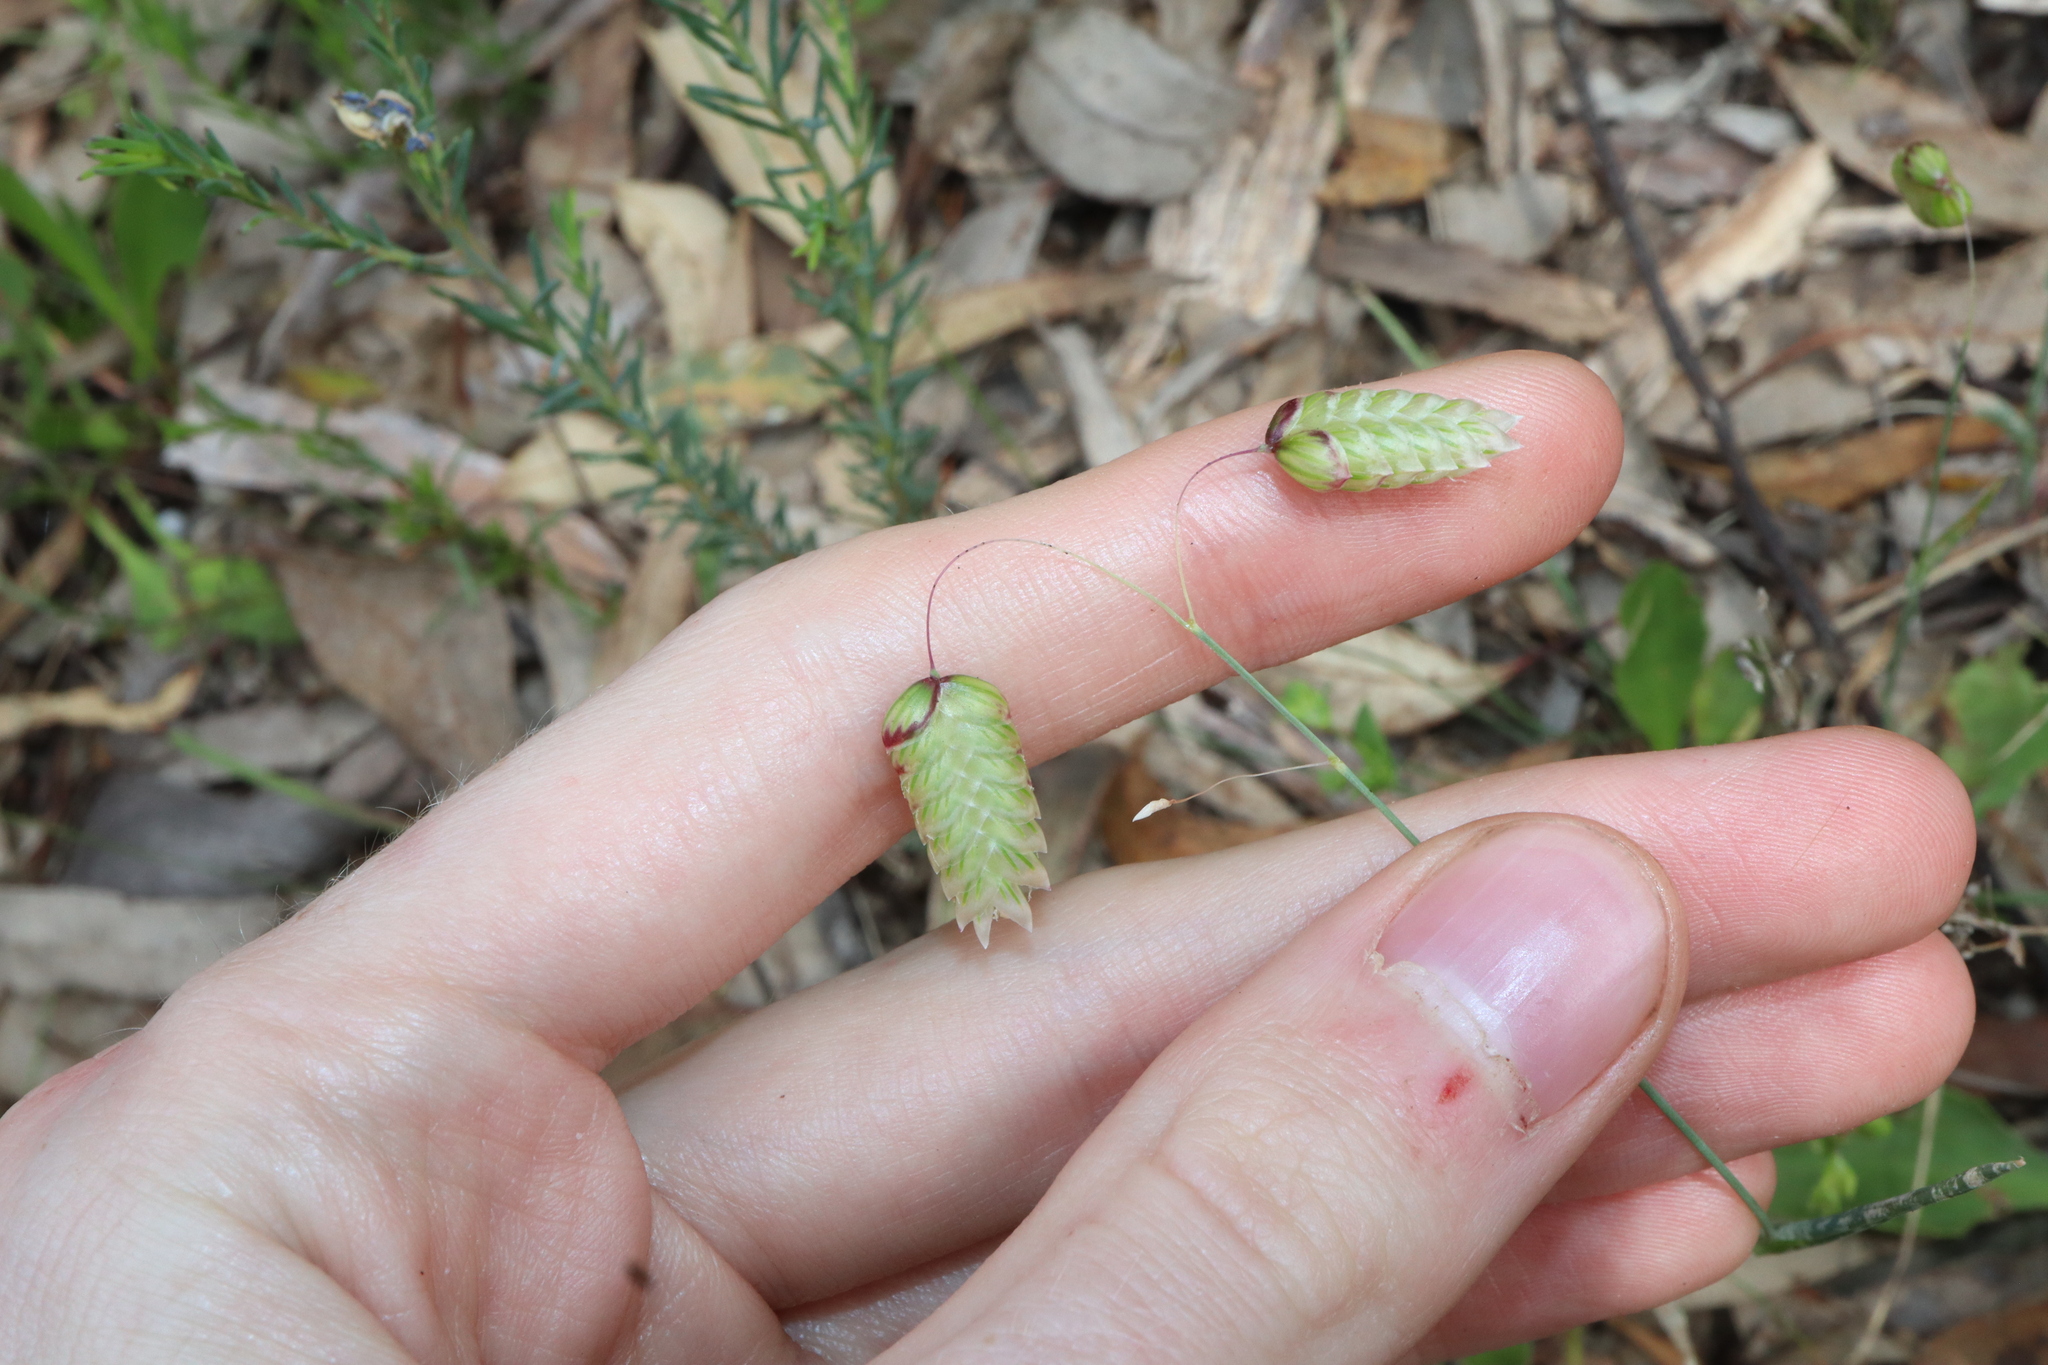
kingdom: Plantae
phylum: Tracheophyta
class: Liliopsida
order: Poales
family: Poaceae
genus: Briza
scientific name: Briza maxima
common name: Big quakinggrass
